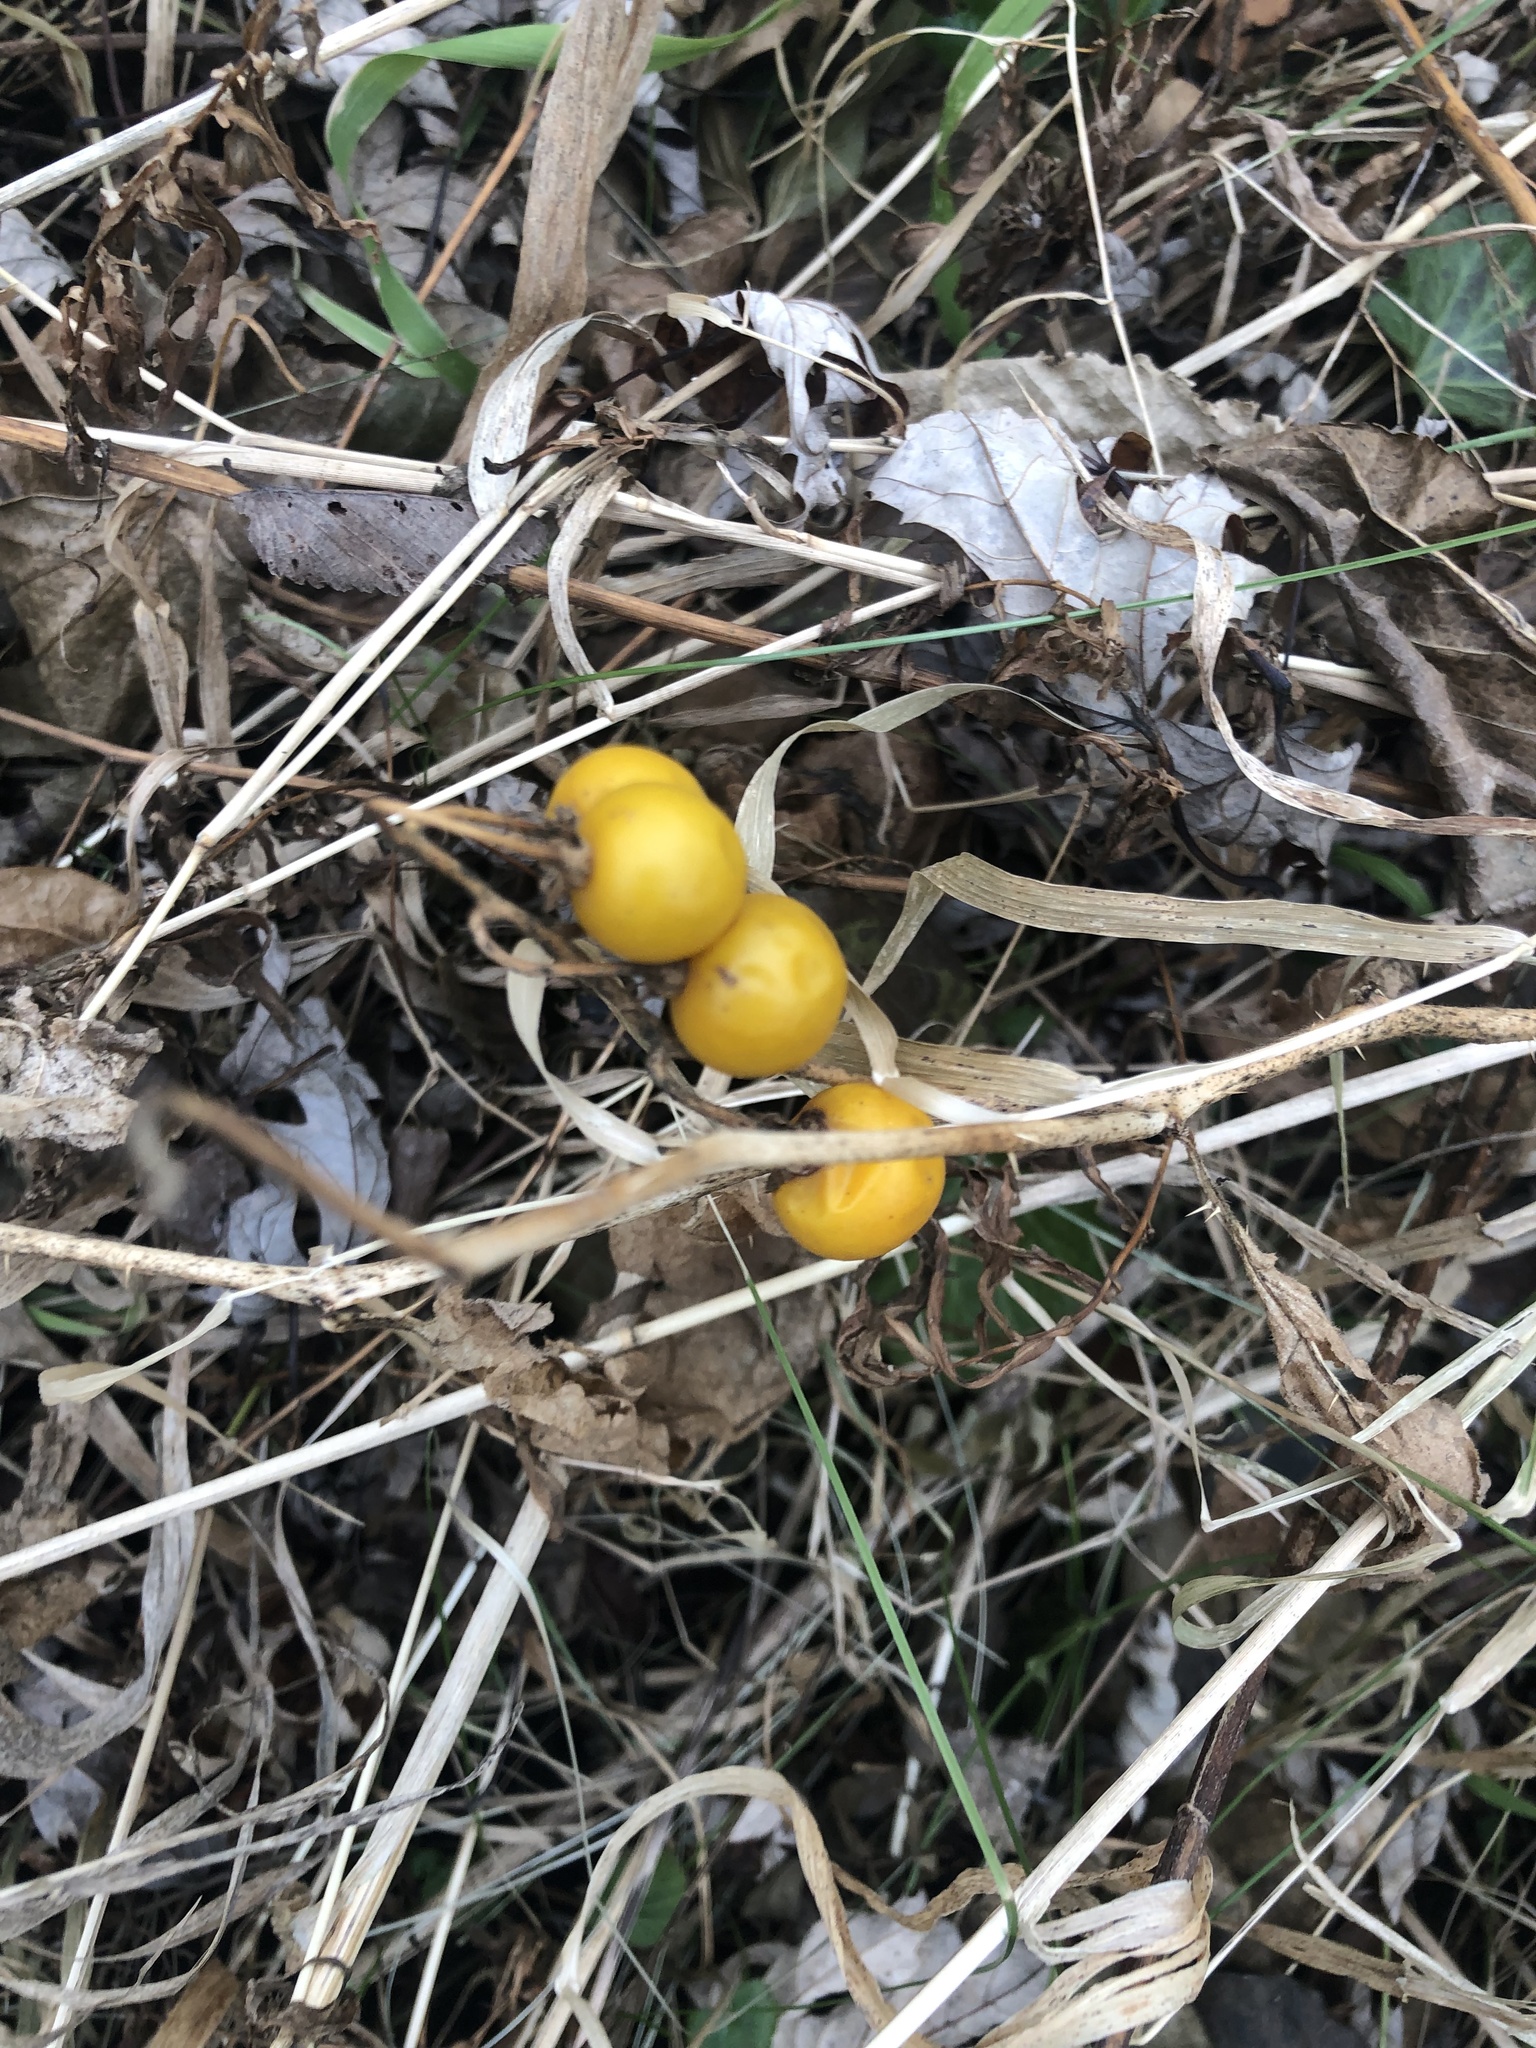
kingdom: Plantae
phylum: Tracheophyta
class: Magnoliopsida
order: Solanales
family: Solanaceae
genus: Solanum
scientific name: Solanum carolinense
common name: Horse-nettle
